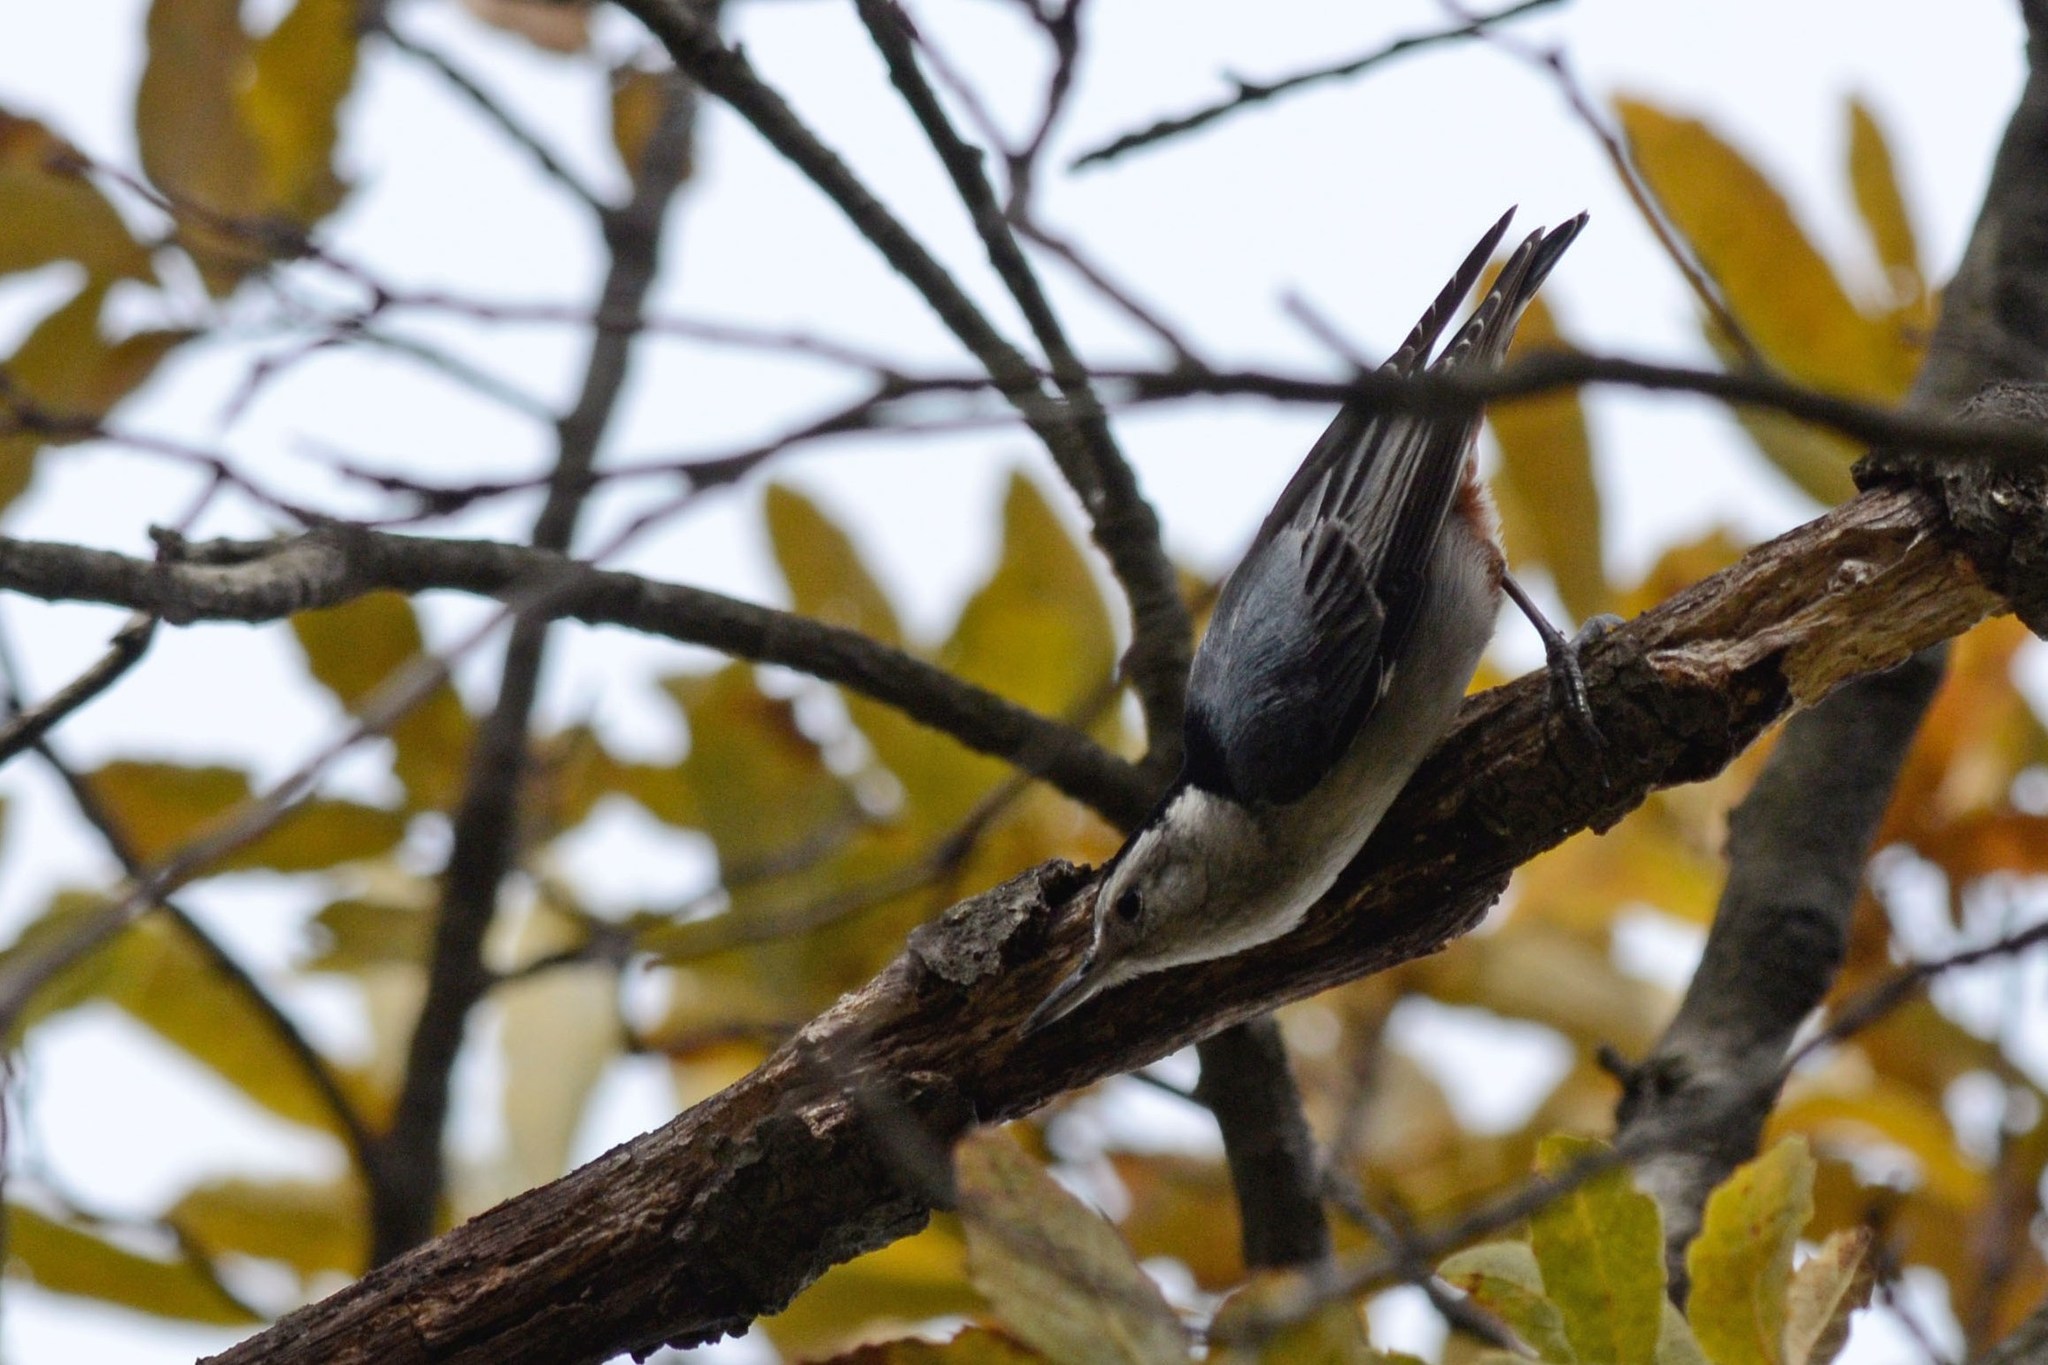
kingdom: Animalia
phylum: Chordata
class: Aves
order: Passeriformes
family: Sittidae
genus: Sitta
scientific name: Sitta carolinensis
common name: White-breasted nuthatch
